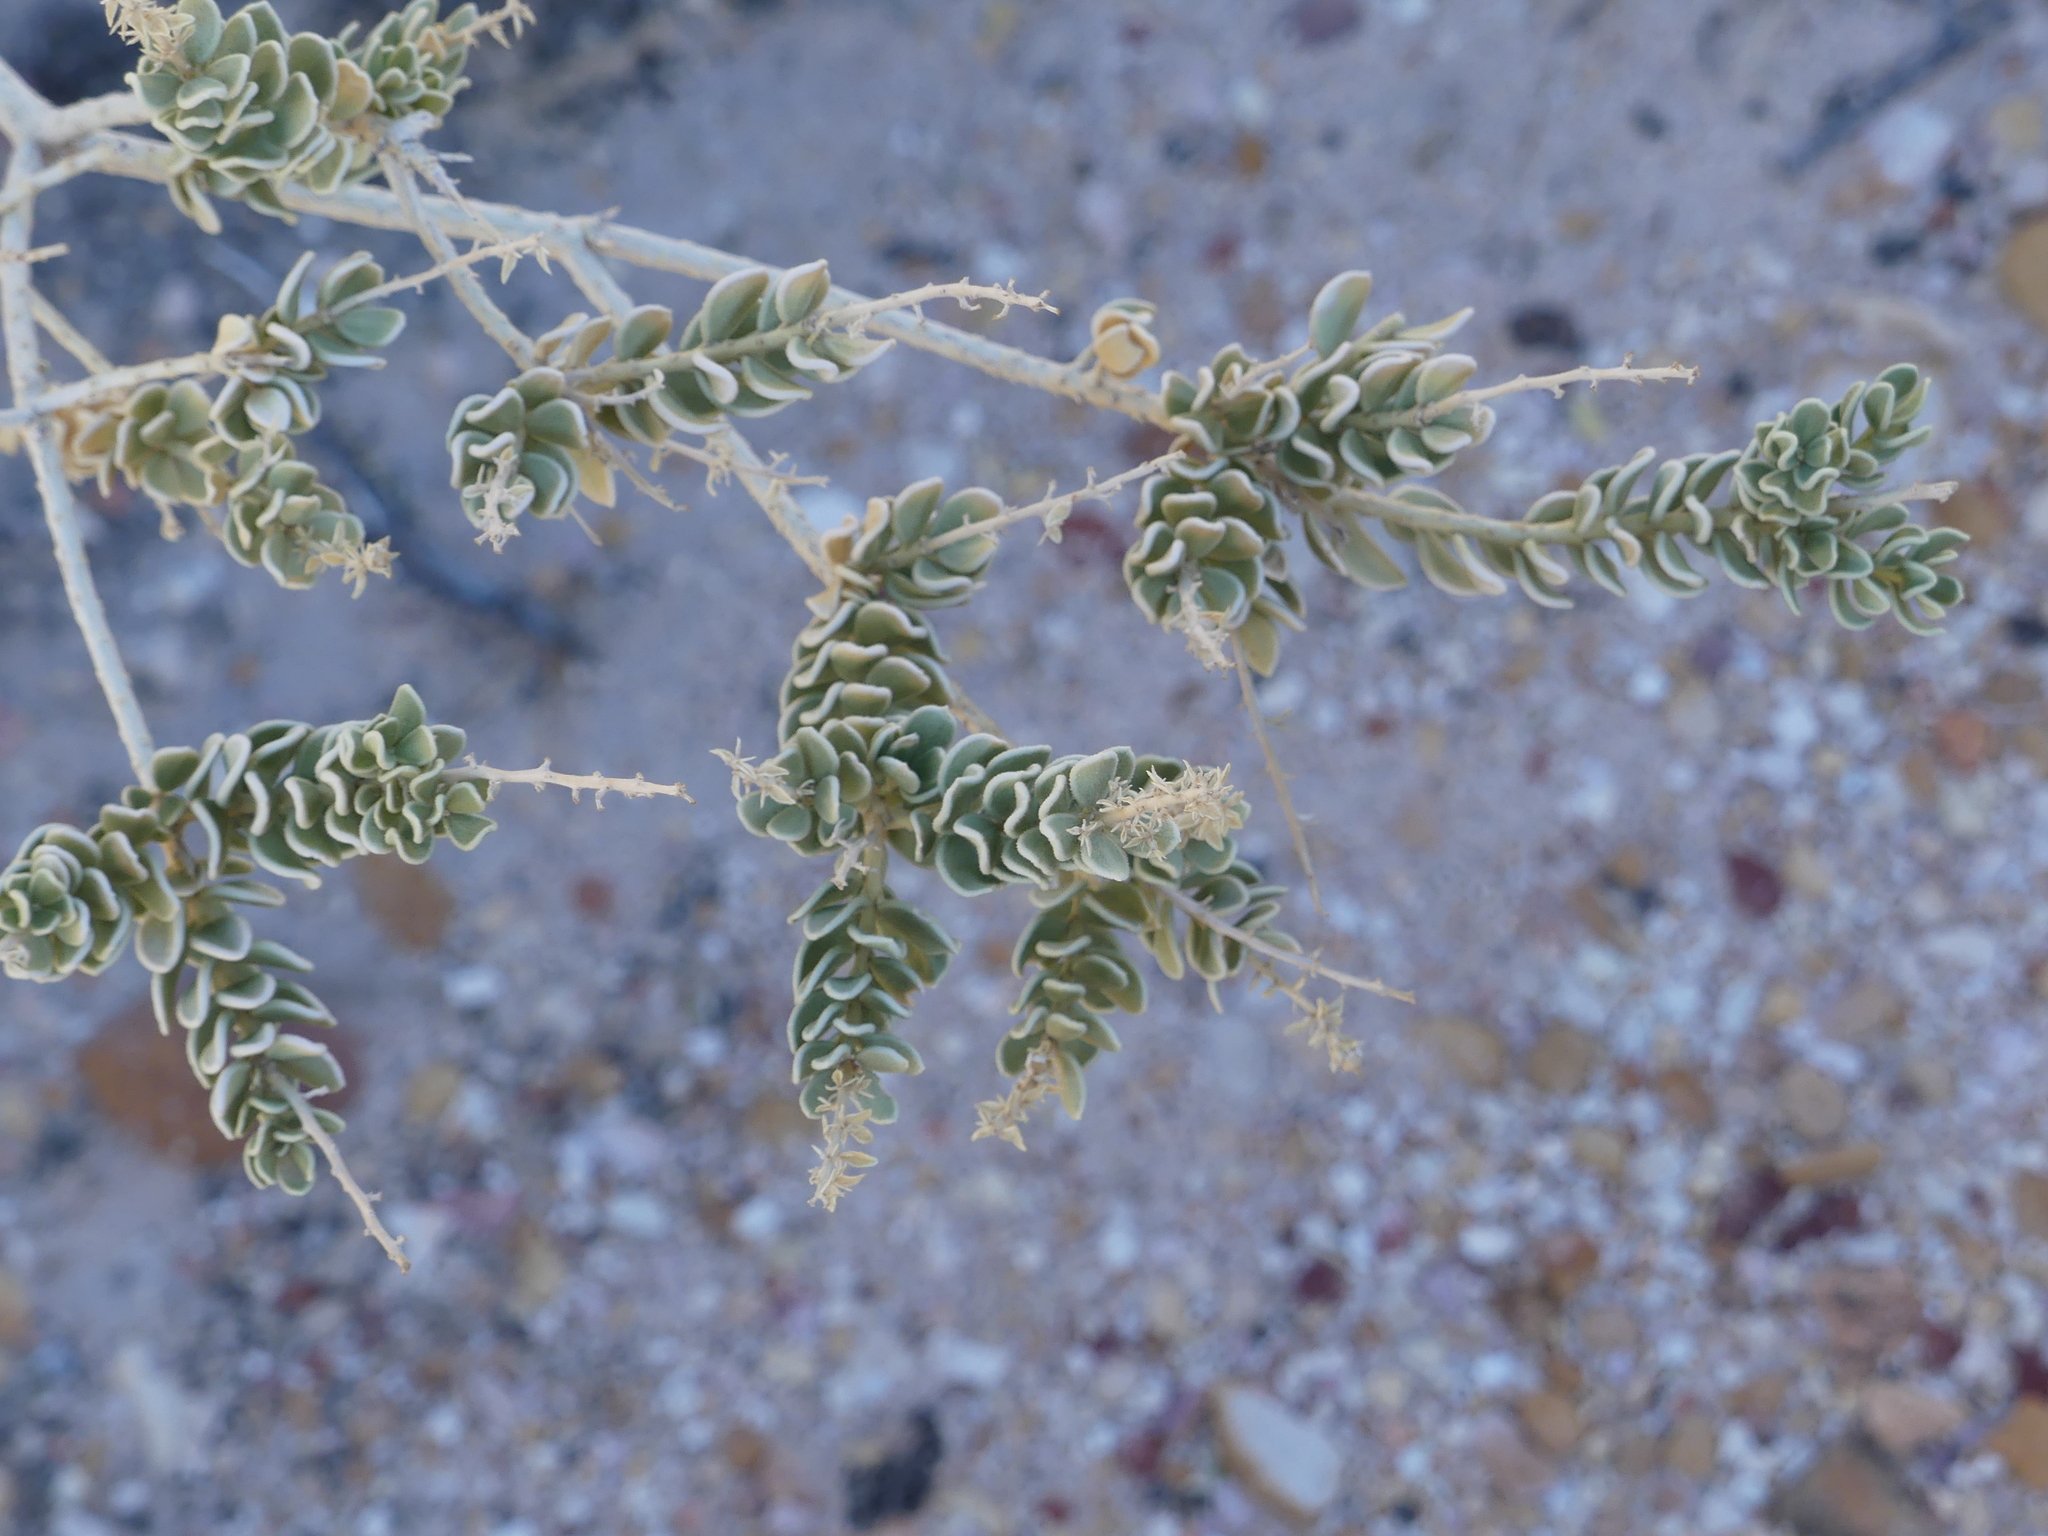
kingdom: Plantae
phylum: Tracheophyta
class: Magnoliopsida
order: Celastrales
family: Celastraceae
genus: Mortonia
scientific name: Mortonia utahensis
